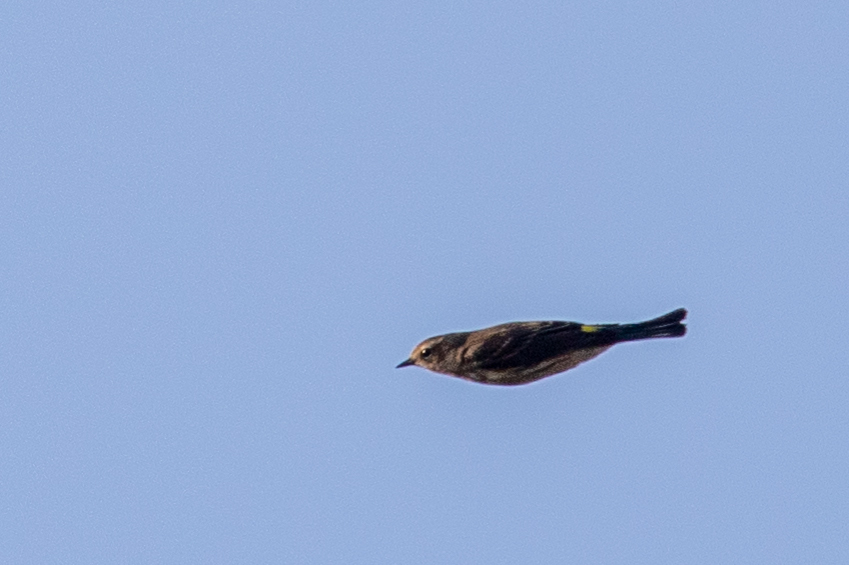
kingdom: Animalia
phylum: Chordata
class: Aves
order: Passeriformes
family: Parulidae
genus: Setophaga
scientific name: Setophaga coronata
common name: Myrtle warbler
